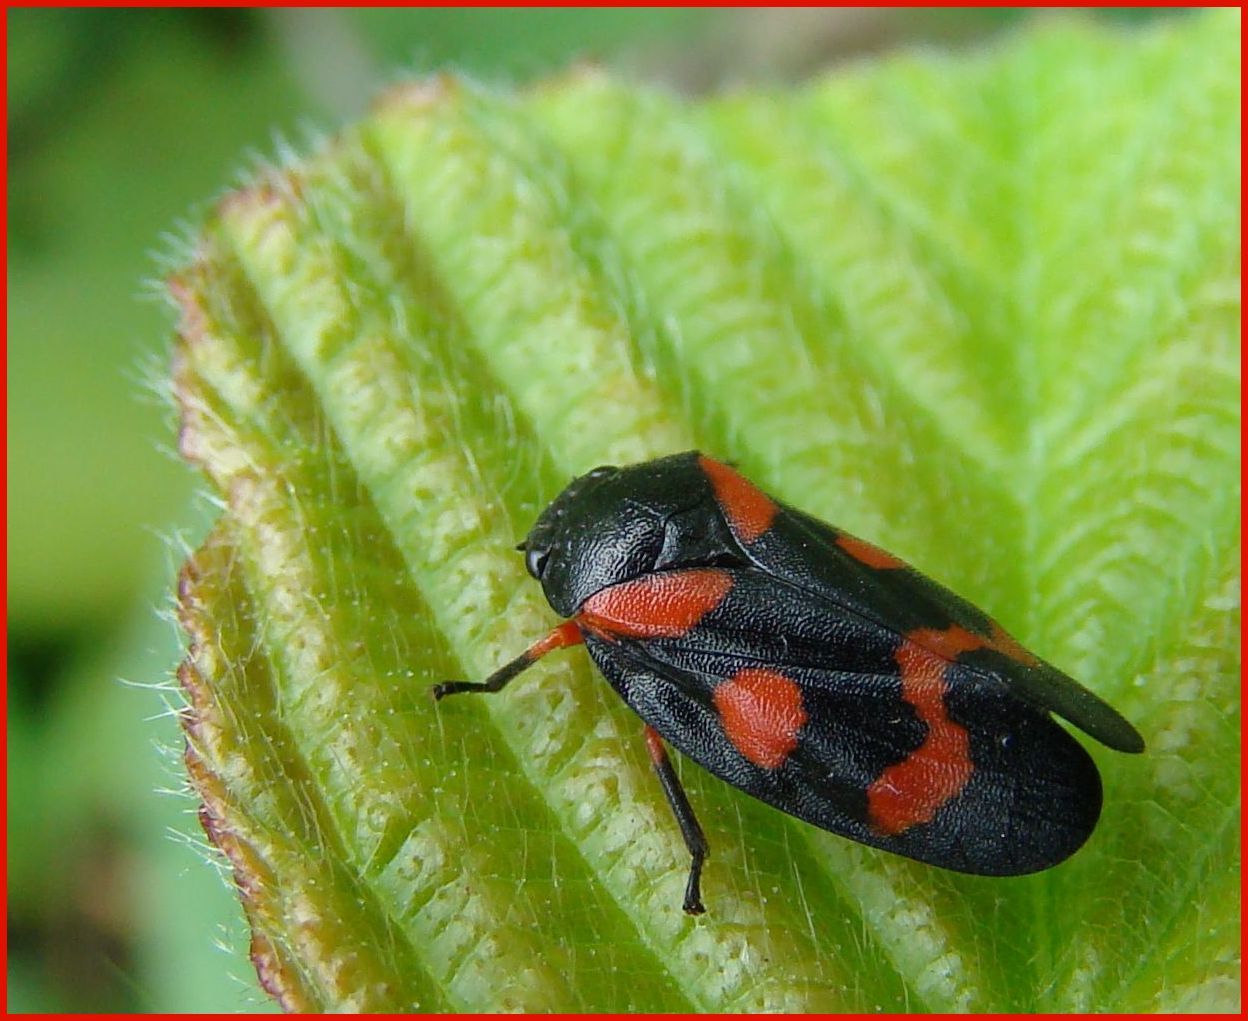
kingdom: Animalia
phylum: Arthropoda
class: Insecta
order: Hemiptera
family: Cercopidae
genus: Cercopis
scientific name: Cercopis intermedia
